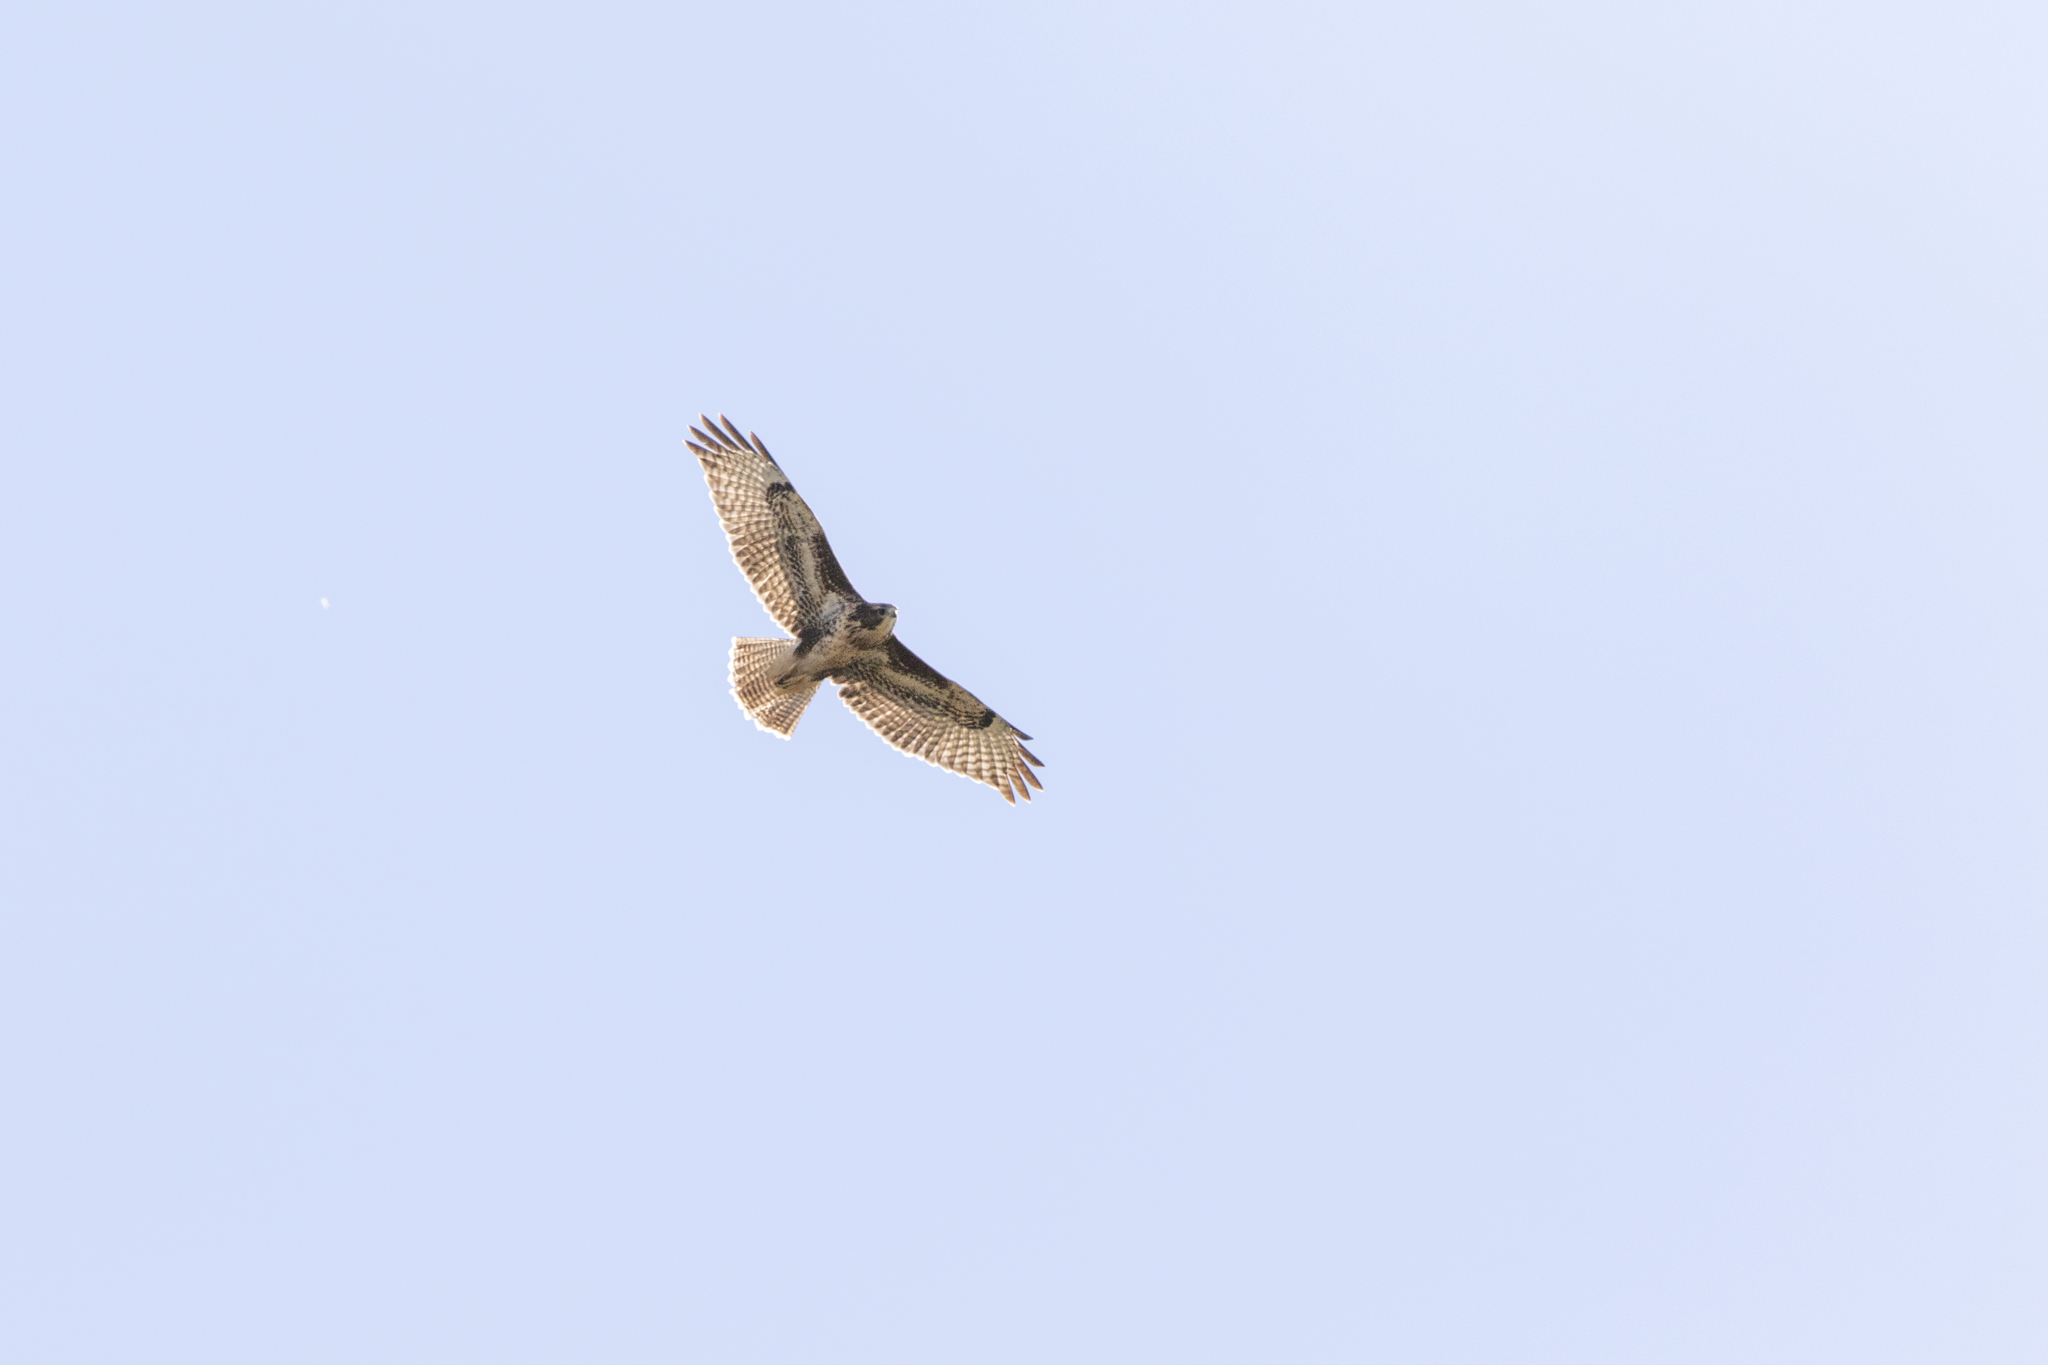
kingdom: Animalia
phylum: Chordata
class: Aves
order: Accipitriformes
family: Accipitridae
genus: Buteo
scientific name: Buteo buteo
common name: Common buzzard
